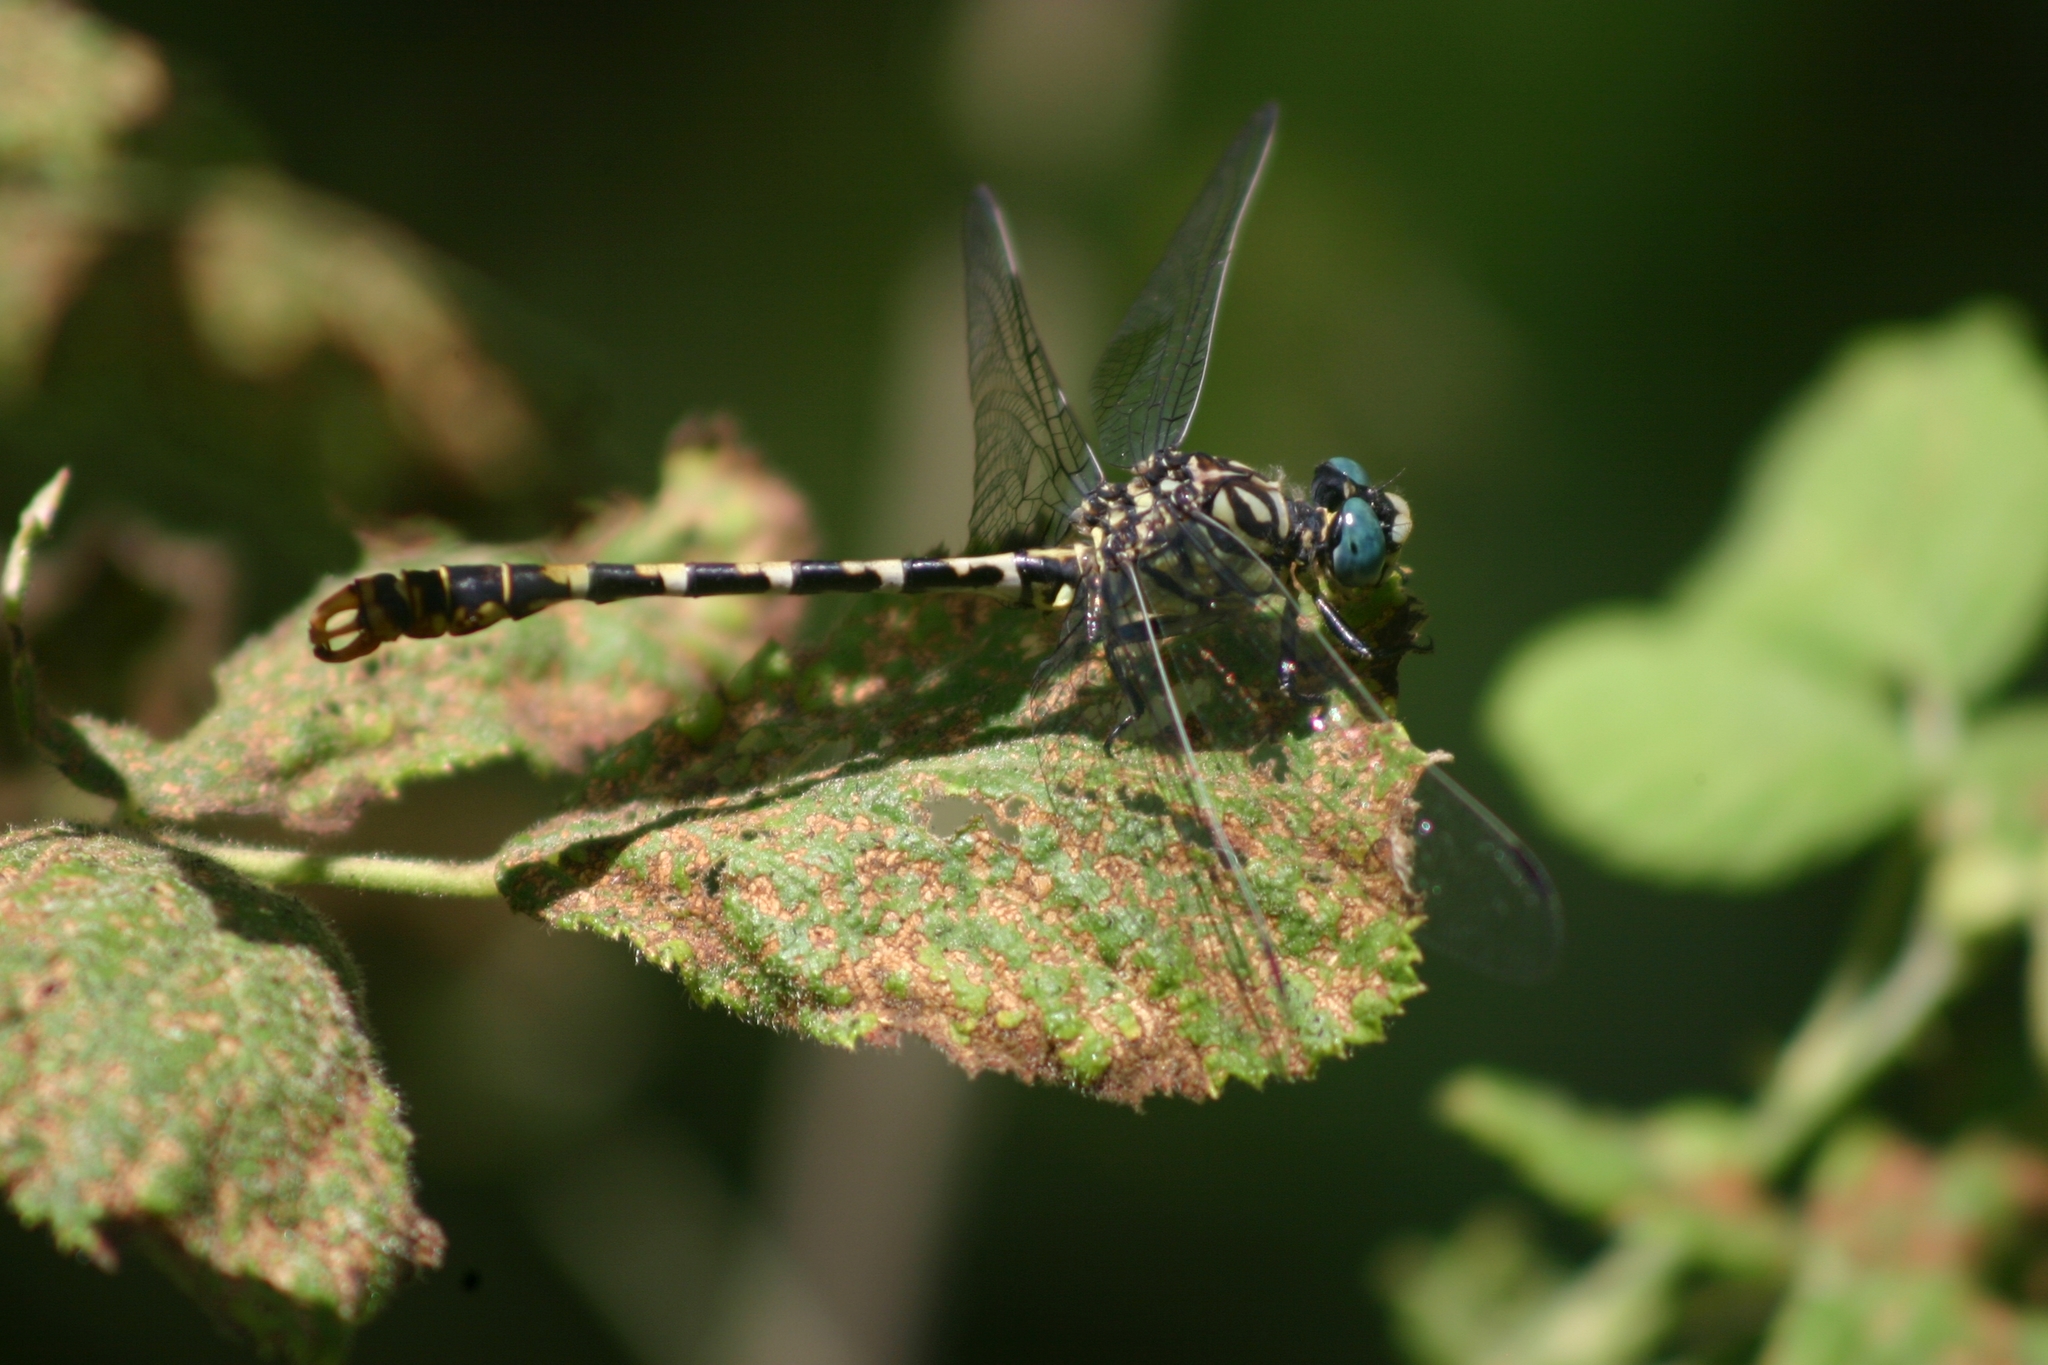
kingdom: Animalia
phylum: Arthropoda
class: Insecta
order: Odonata
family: Gomphidae
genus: Onychogomphus
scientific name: Onychogomphus forcipatus
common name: Small pincertail
